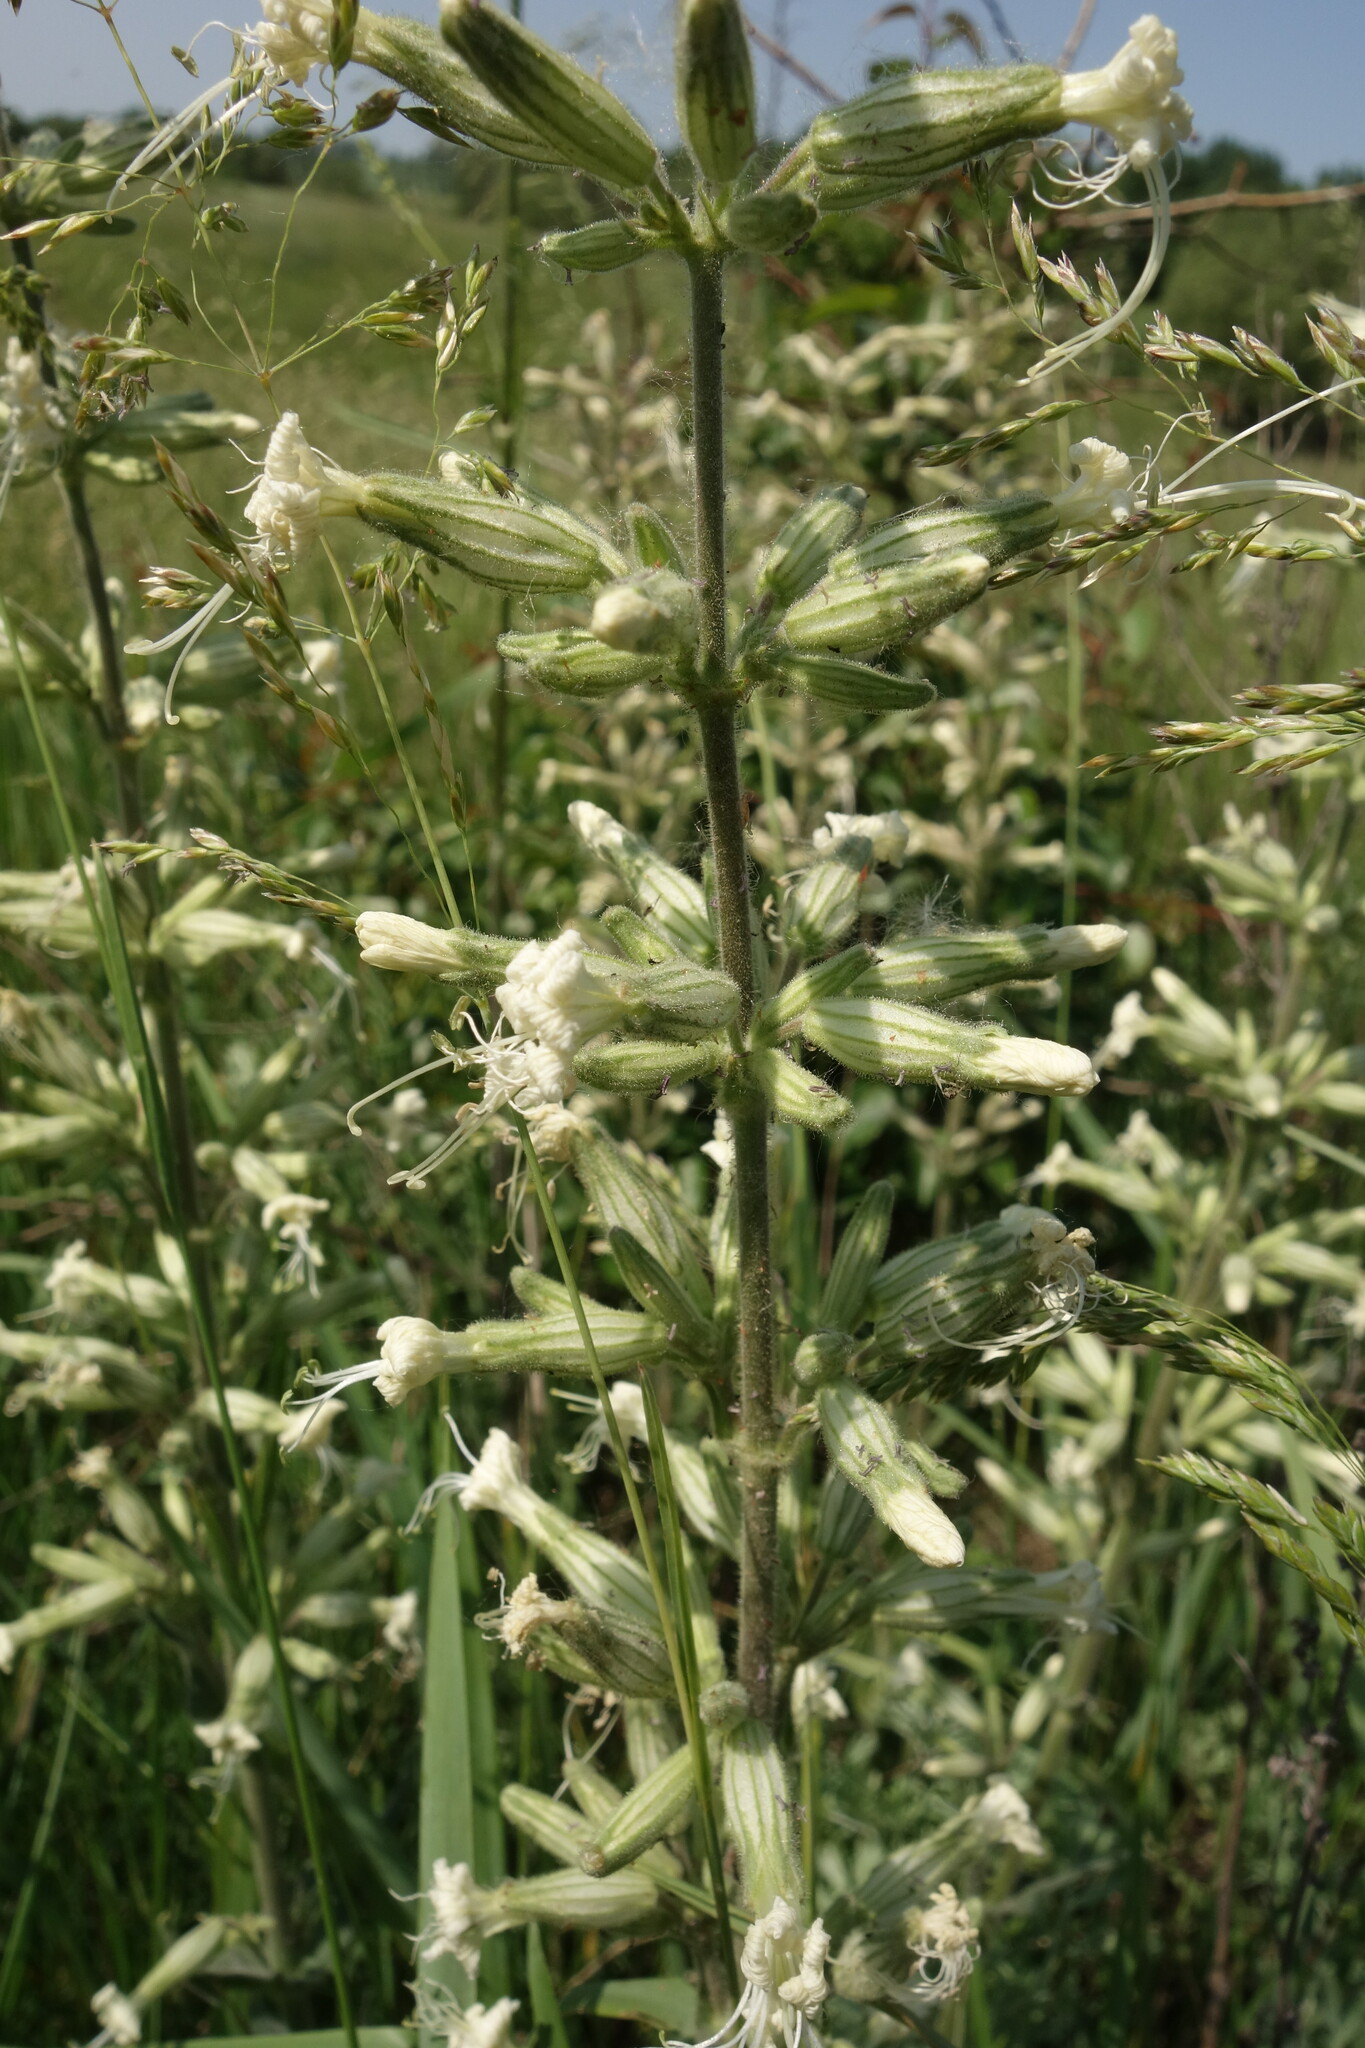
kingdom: Plantae
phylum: Tracheophyta
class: Magnoliopsida
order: Caryophyllales
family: Caryophyllaceae
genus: Silene
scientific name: Silene viscosa
